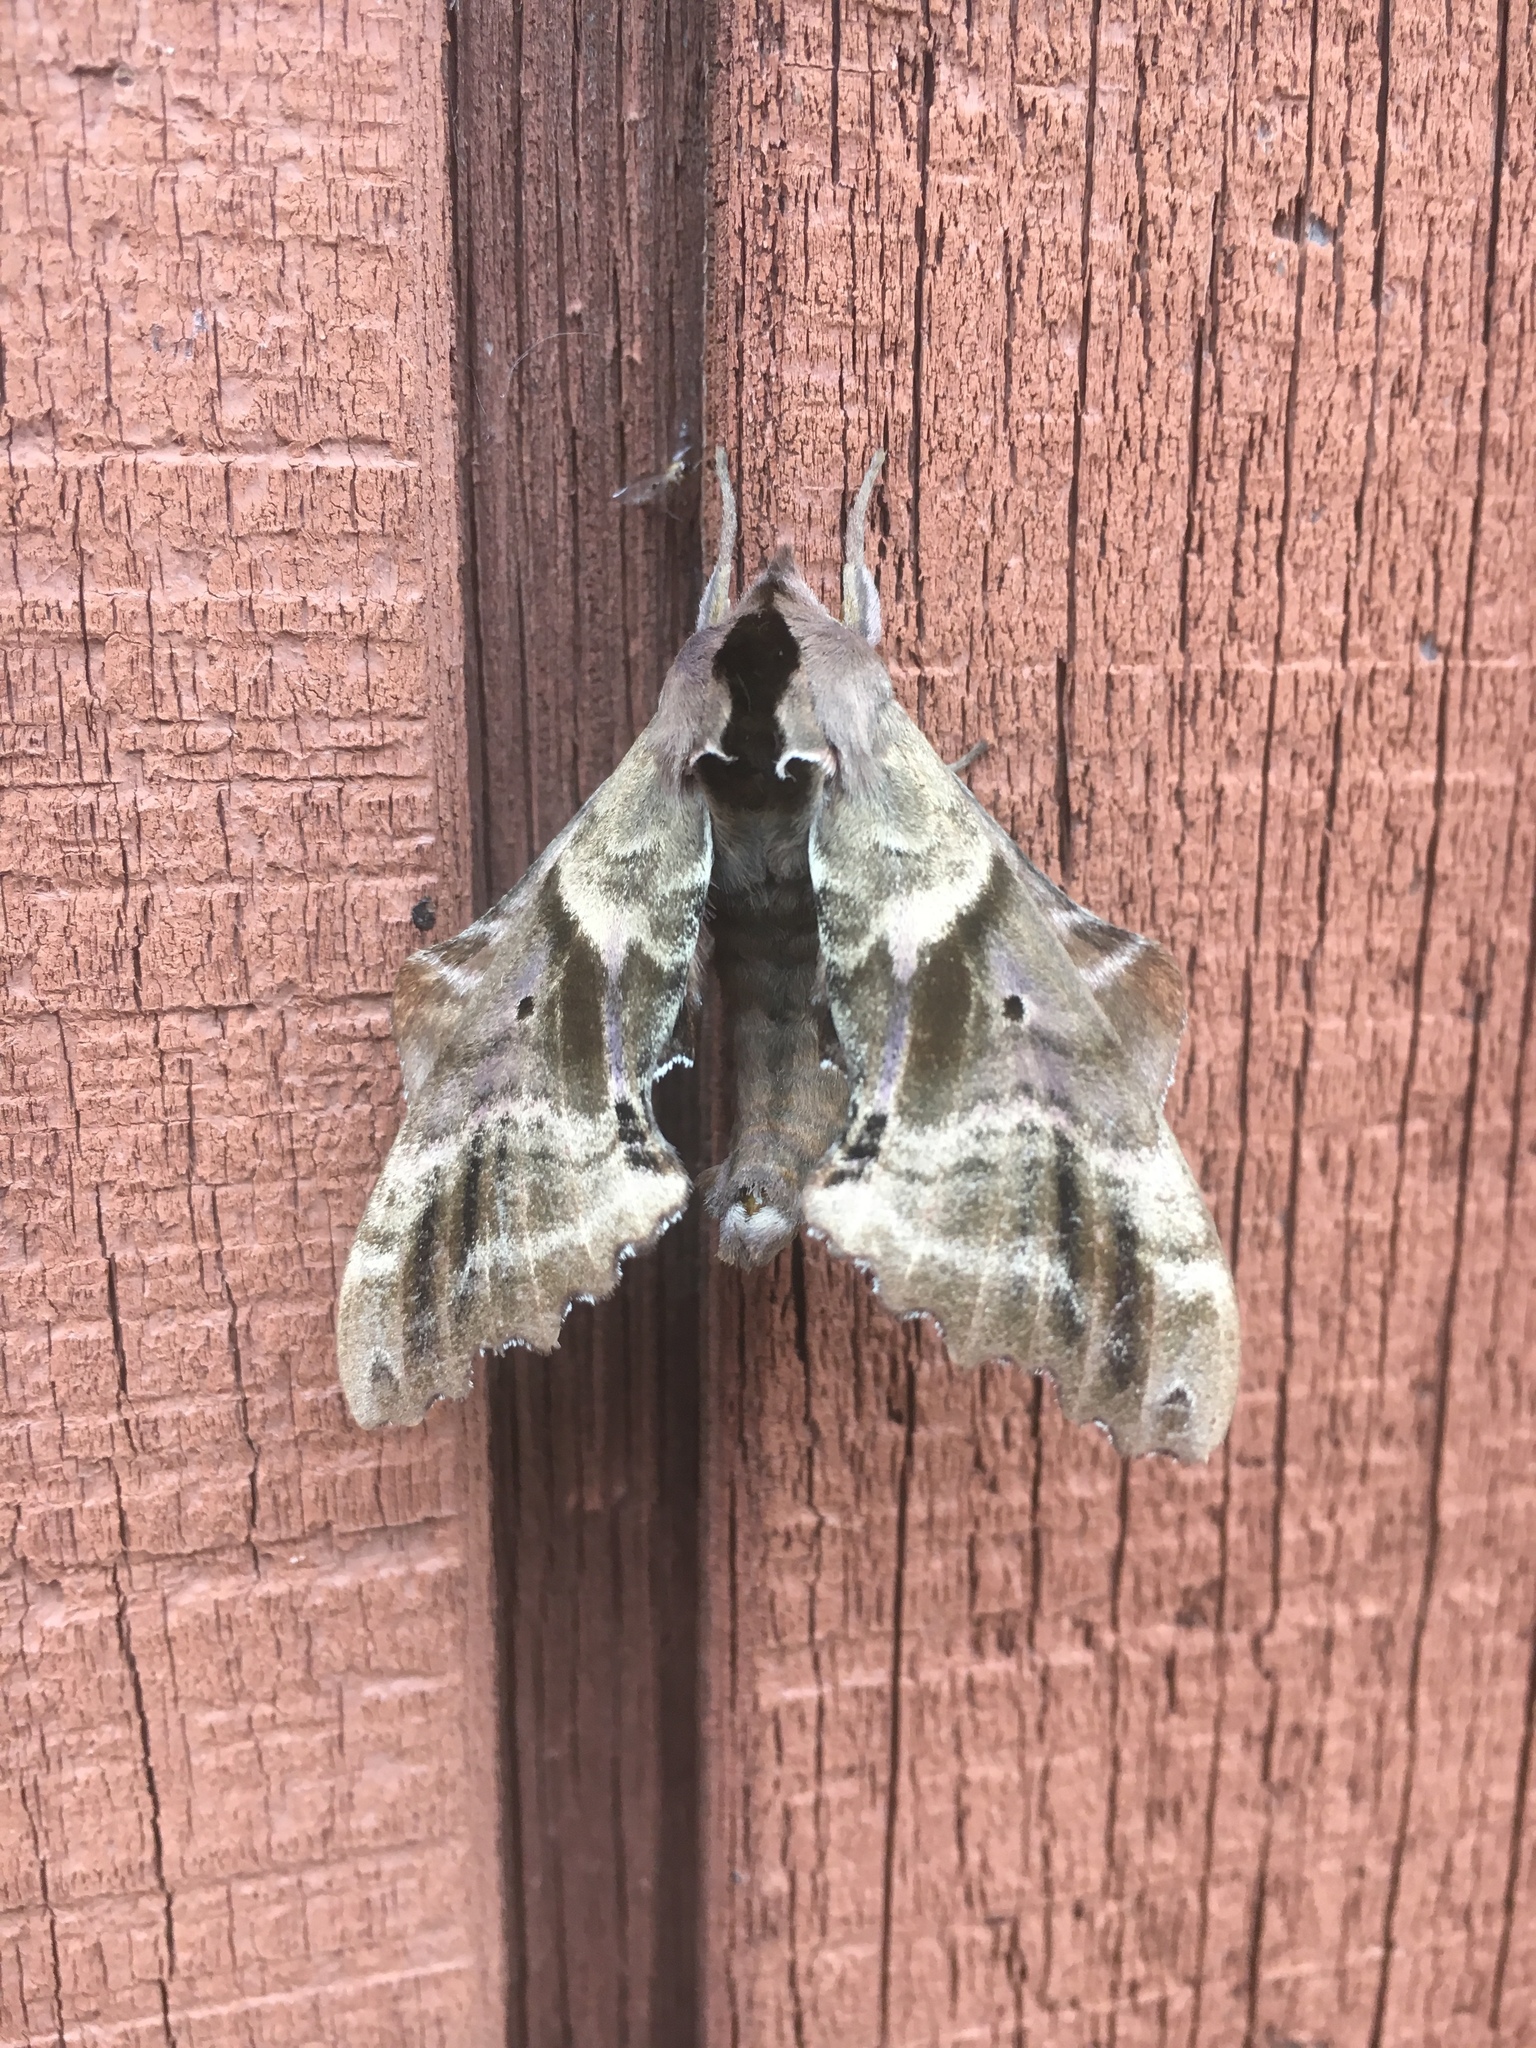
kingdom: Animalia
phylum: Arthropoda
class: Insecta
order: Lepidoptera
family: Sphingidae
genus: Smerinthus
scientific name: Smerinthus jamaicensis
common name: Twin spotted sphinx
